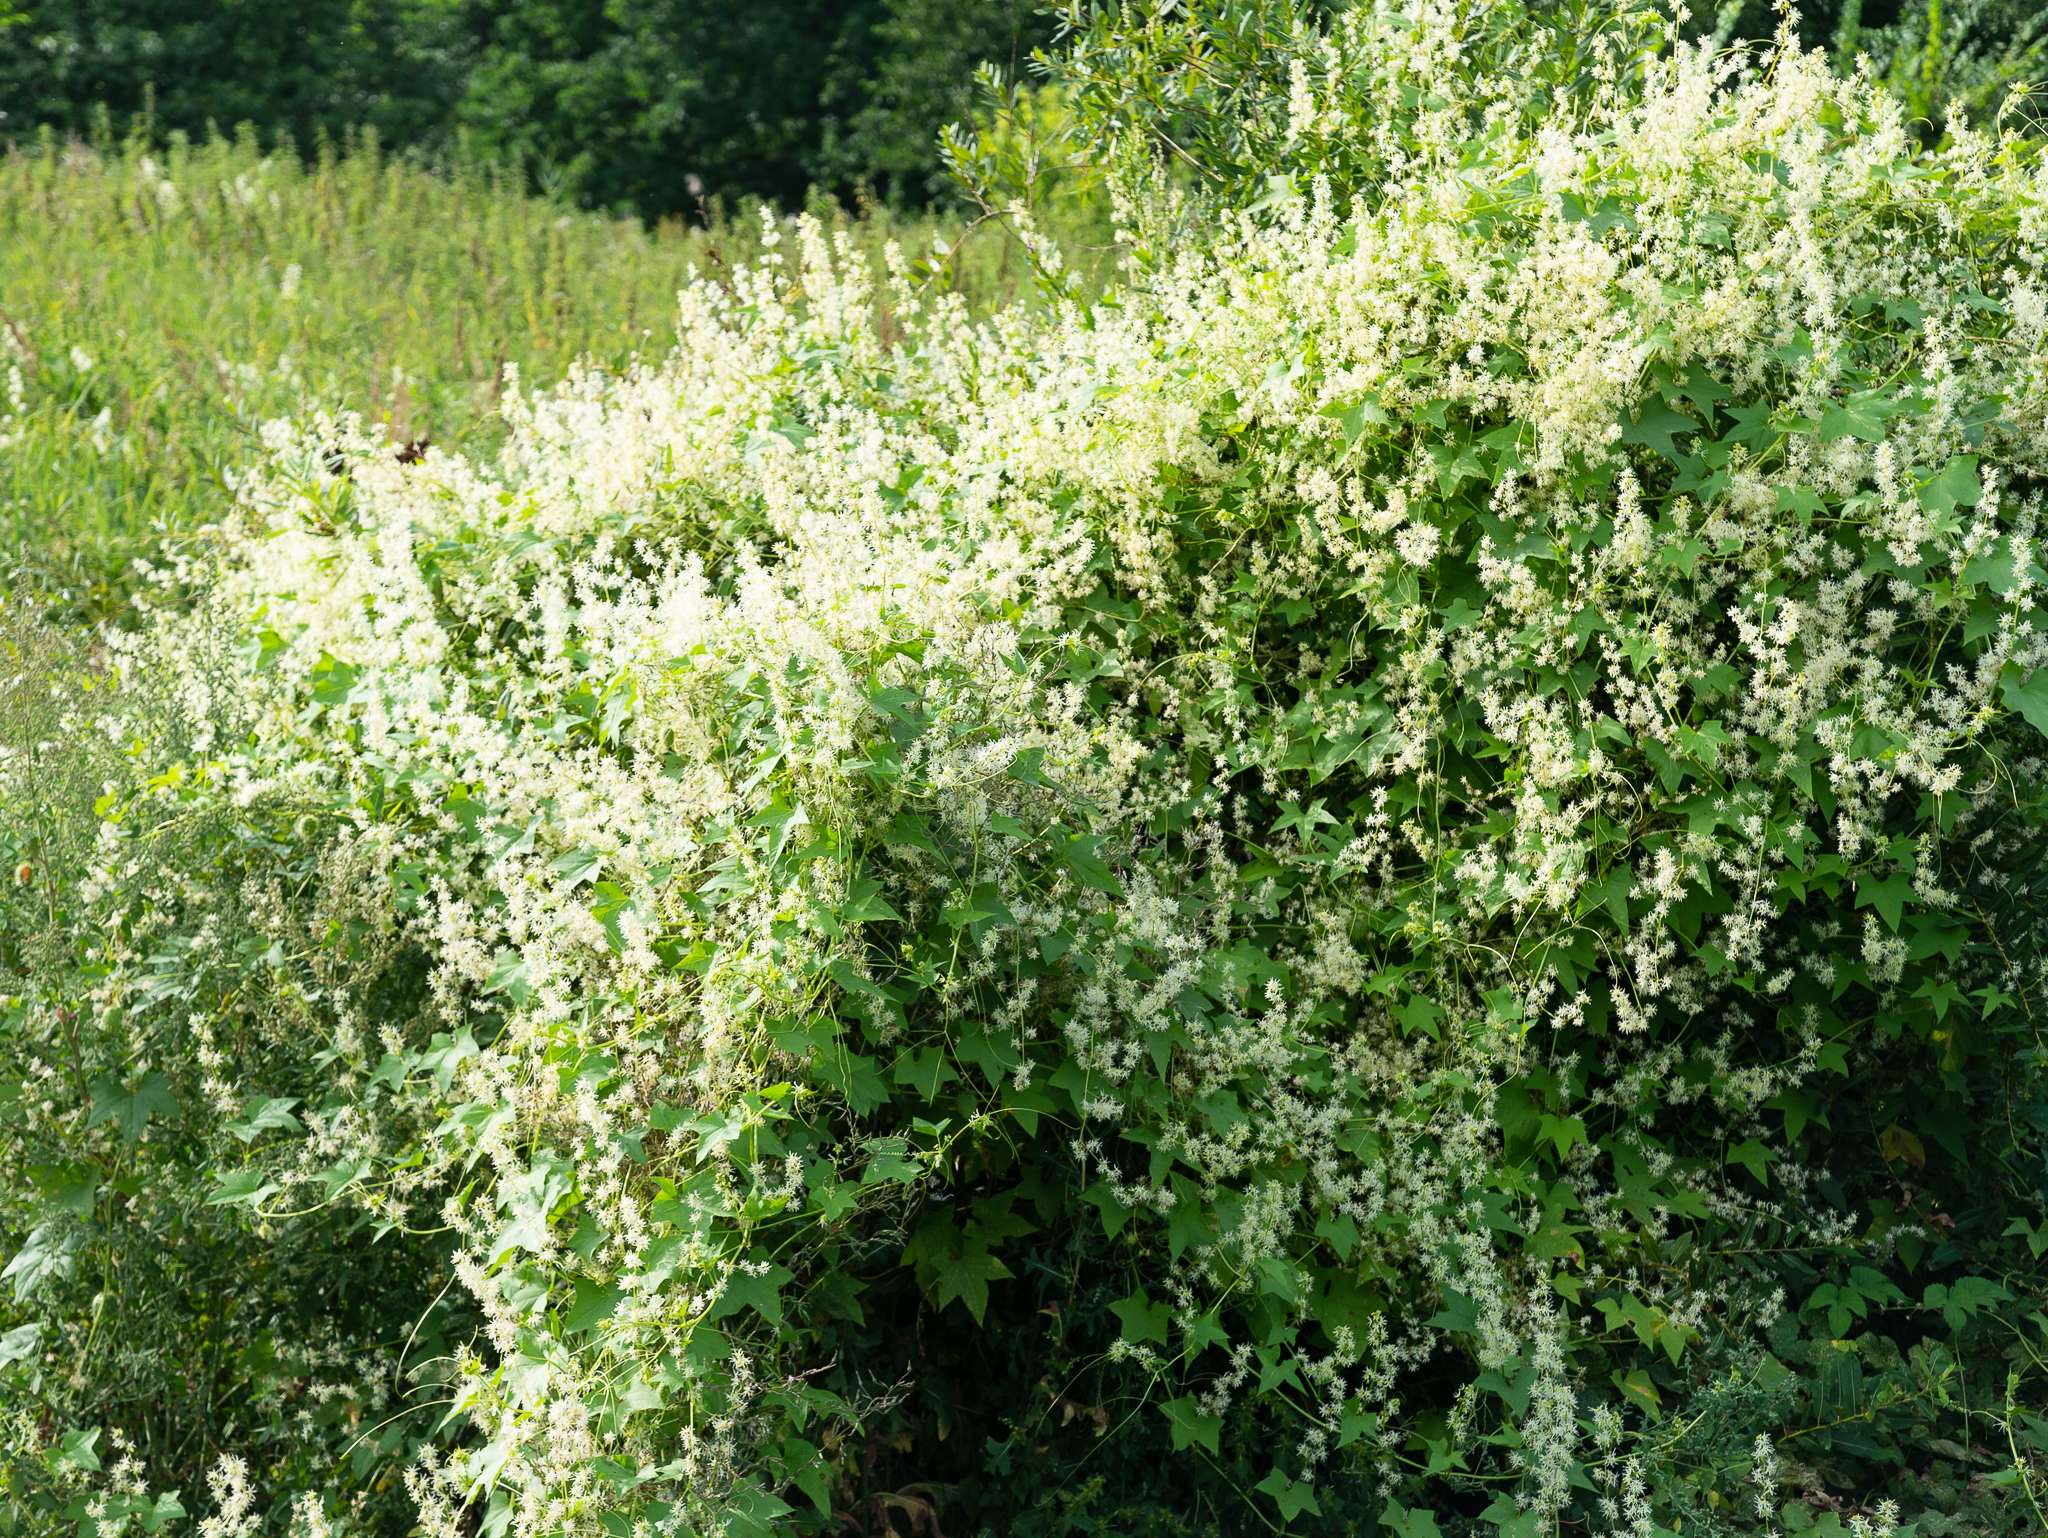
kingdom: Plantae
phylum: Tracheophyta
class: Magnoliopsida
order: Cucurbitales
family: Cucurbitaceae
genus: Echinocystis
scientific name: Echinocystis lobata
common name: Wild cucumber
